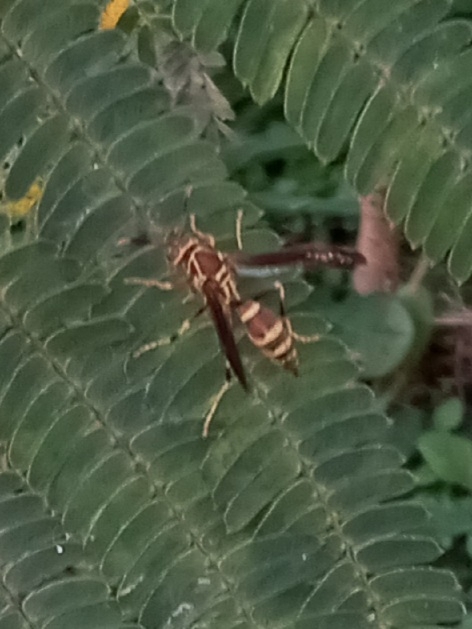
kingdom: Animalia
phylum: Arthropoda
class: Insecta
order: Hymenoptera
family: Eumenidae
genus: Polistes
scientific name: Polistes exclamans
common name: Paper wasp
